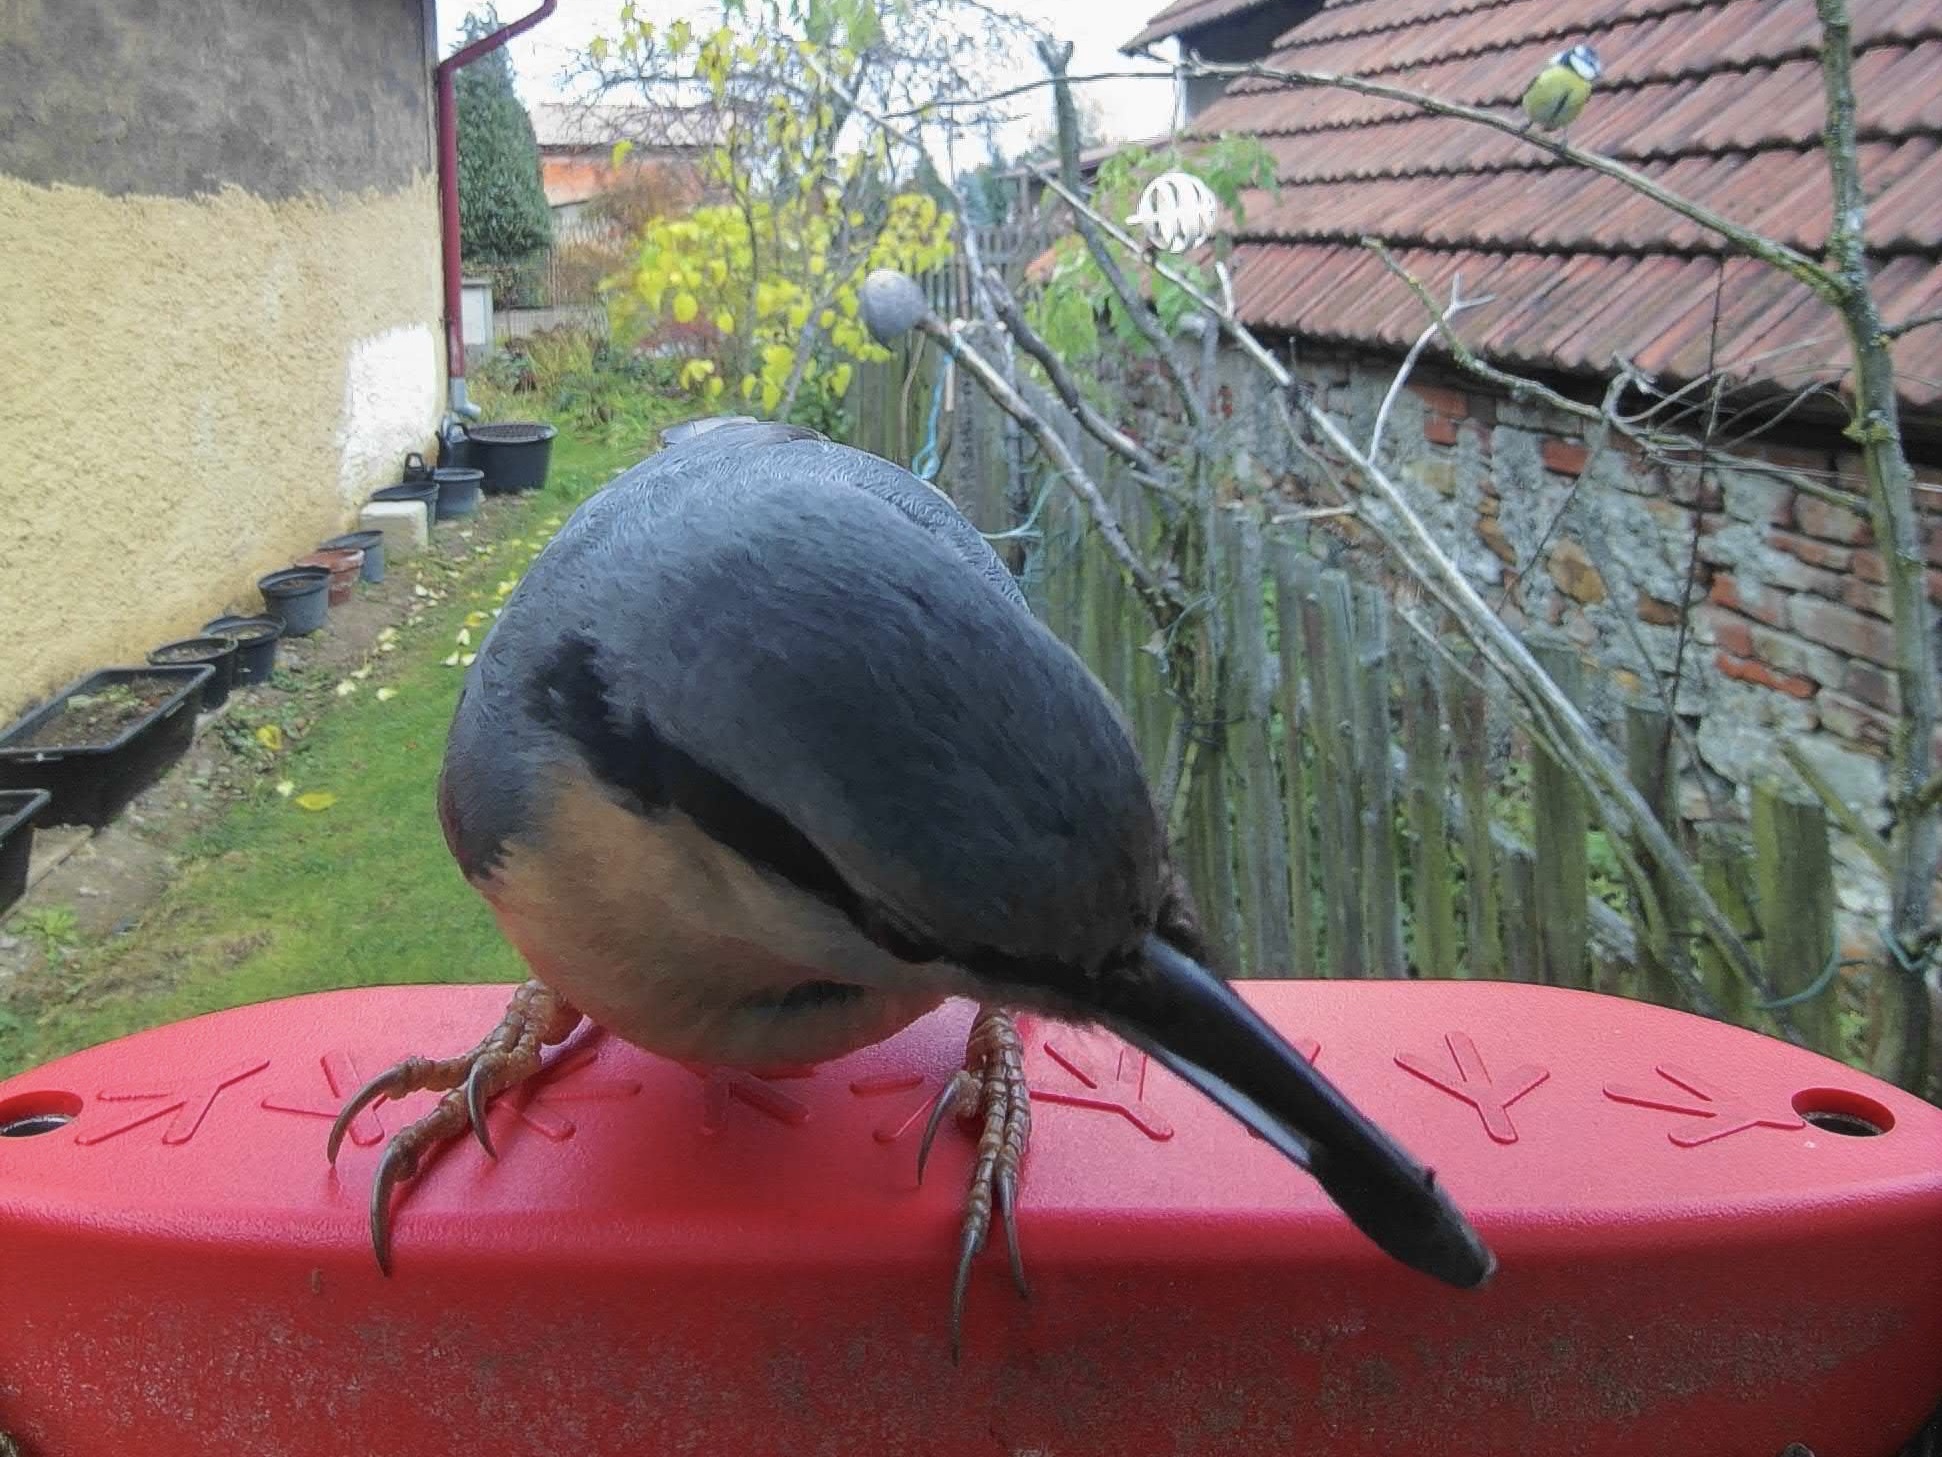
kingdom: Animalia
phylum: Chordata
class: Aves
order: Passeriformes
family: Sittidae
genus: Sitta
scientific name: Sitta europaea
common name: Eurasian nuthatch
